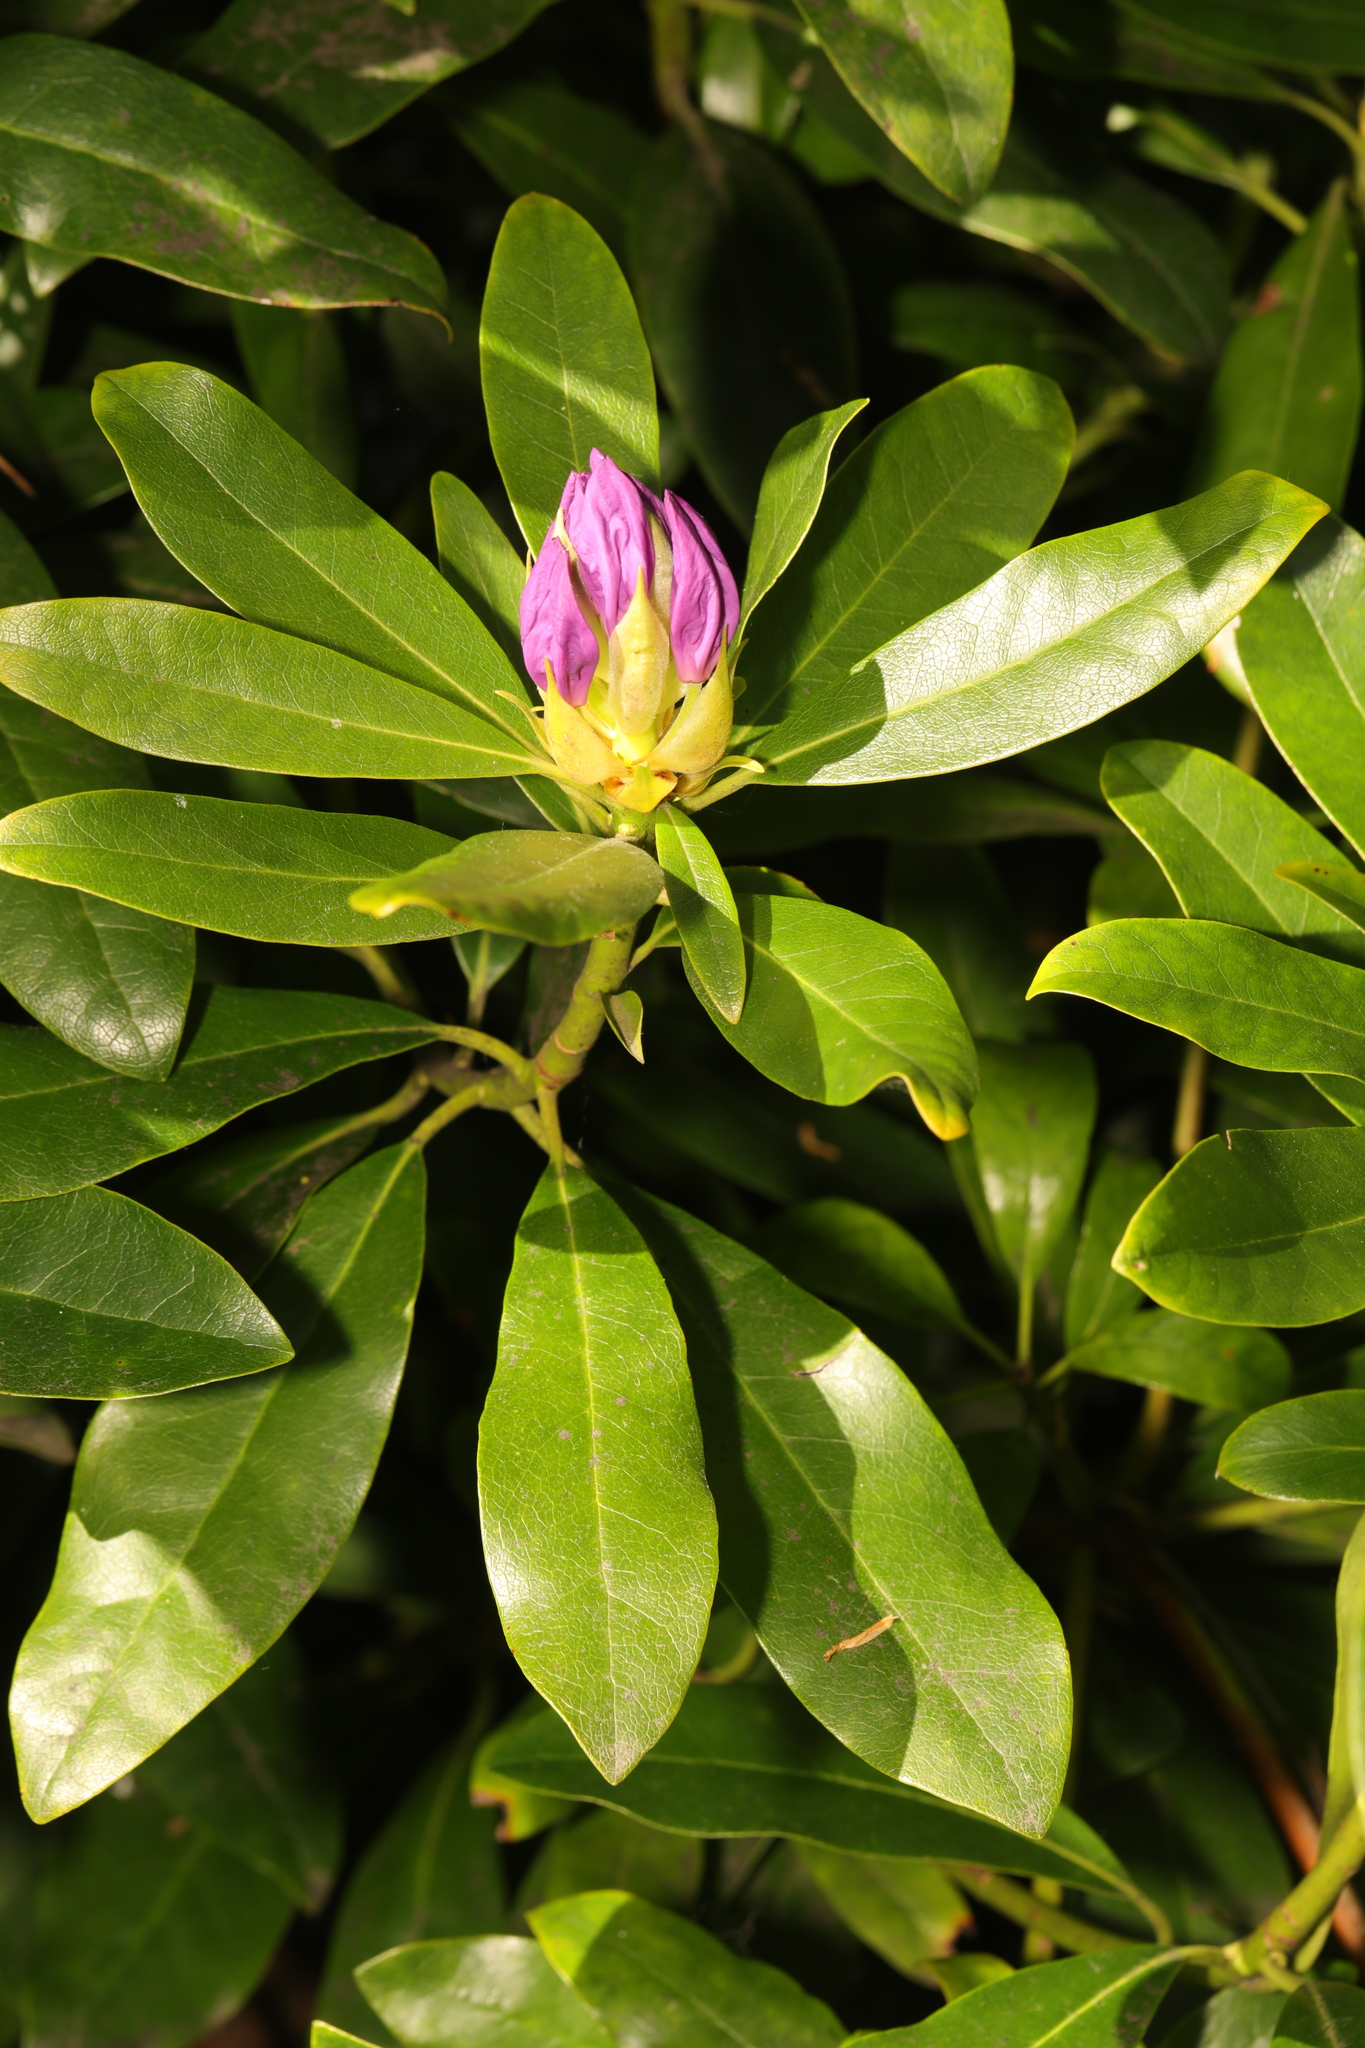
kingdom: Plantae
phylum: Tracheophyta
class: Magnoliopsida
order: Ericales
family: Ericaceae
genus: Rhododendron
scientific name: Rhododendron ponticum
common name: Rhododendron
